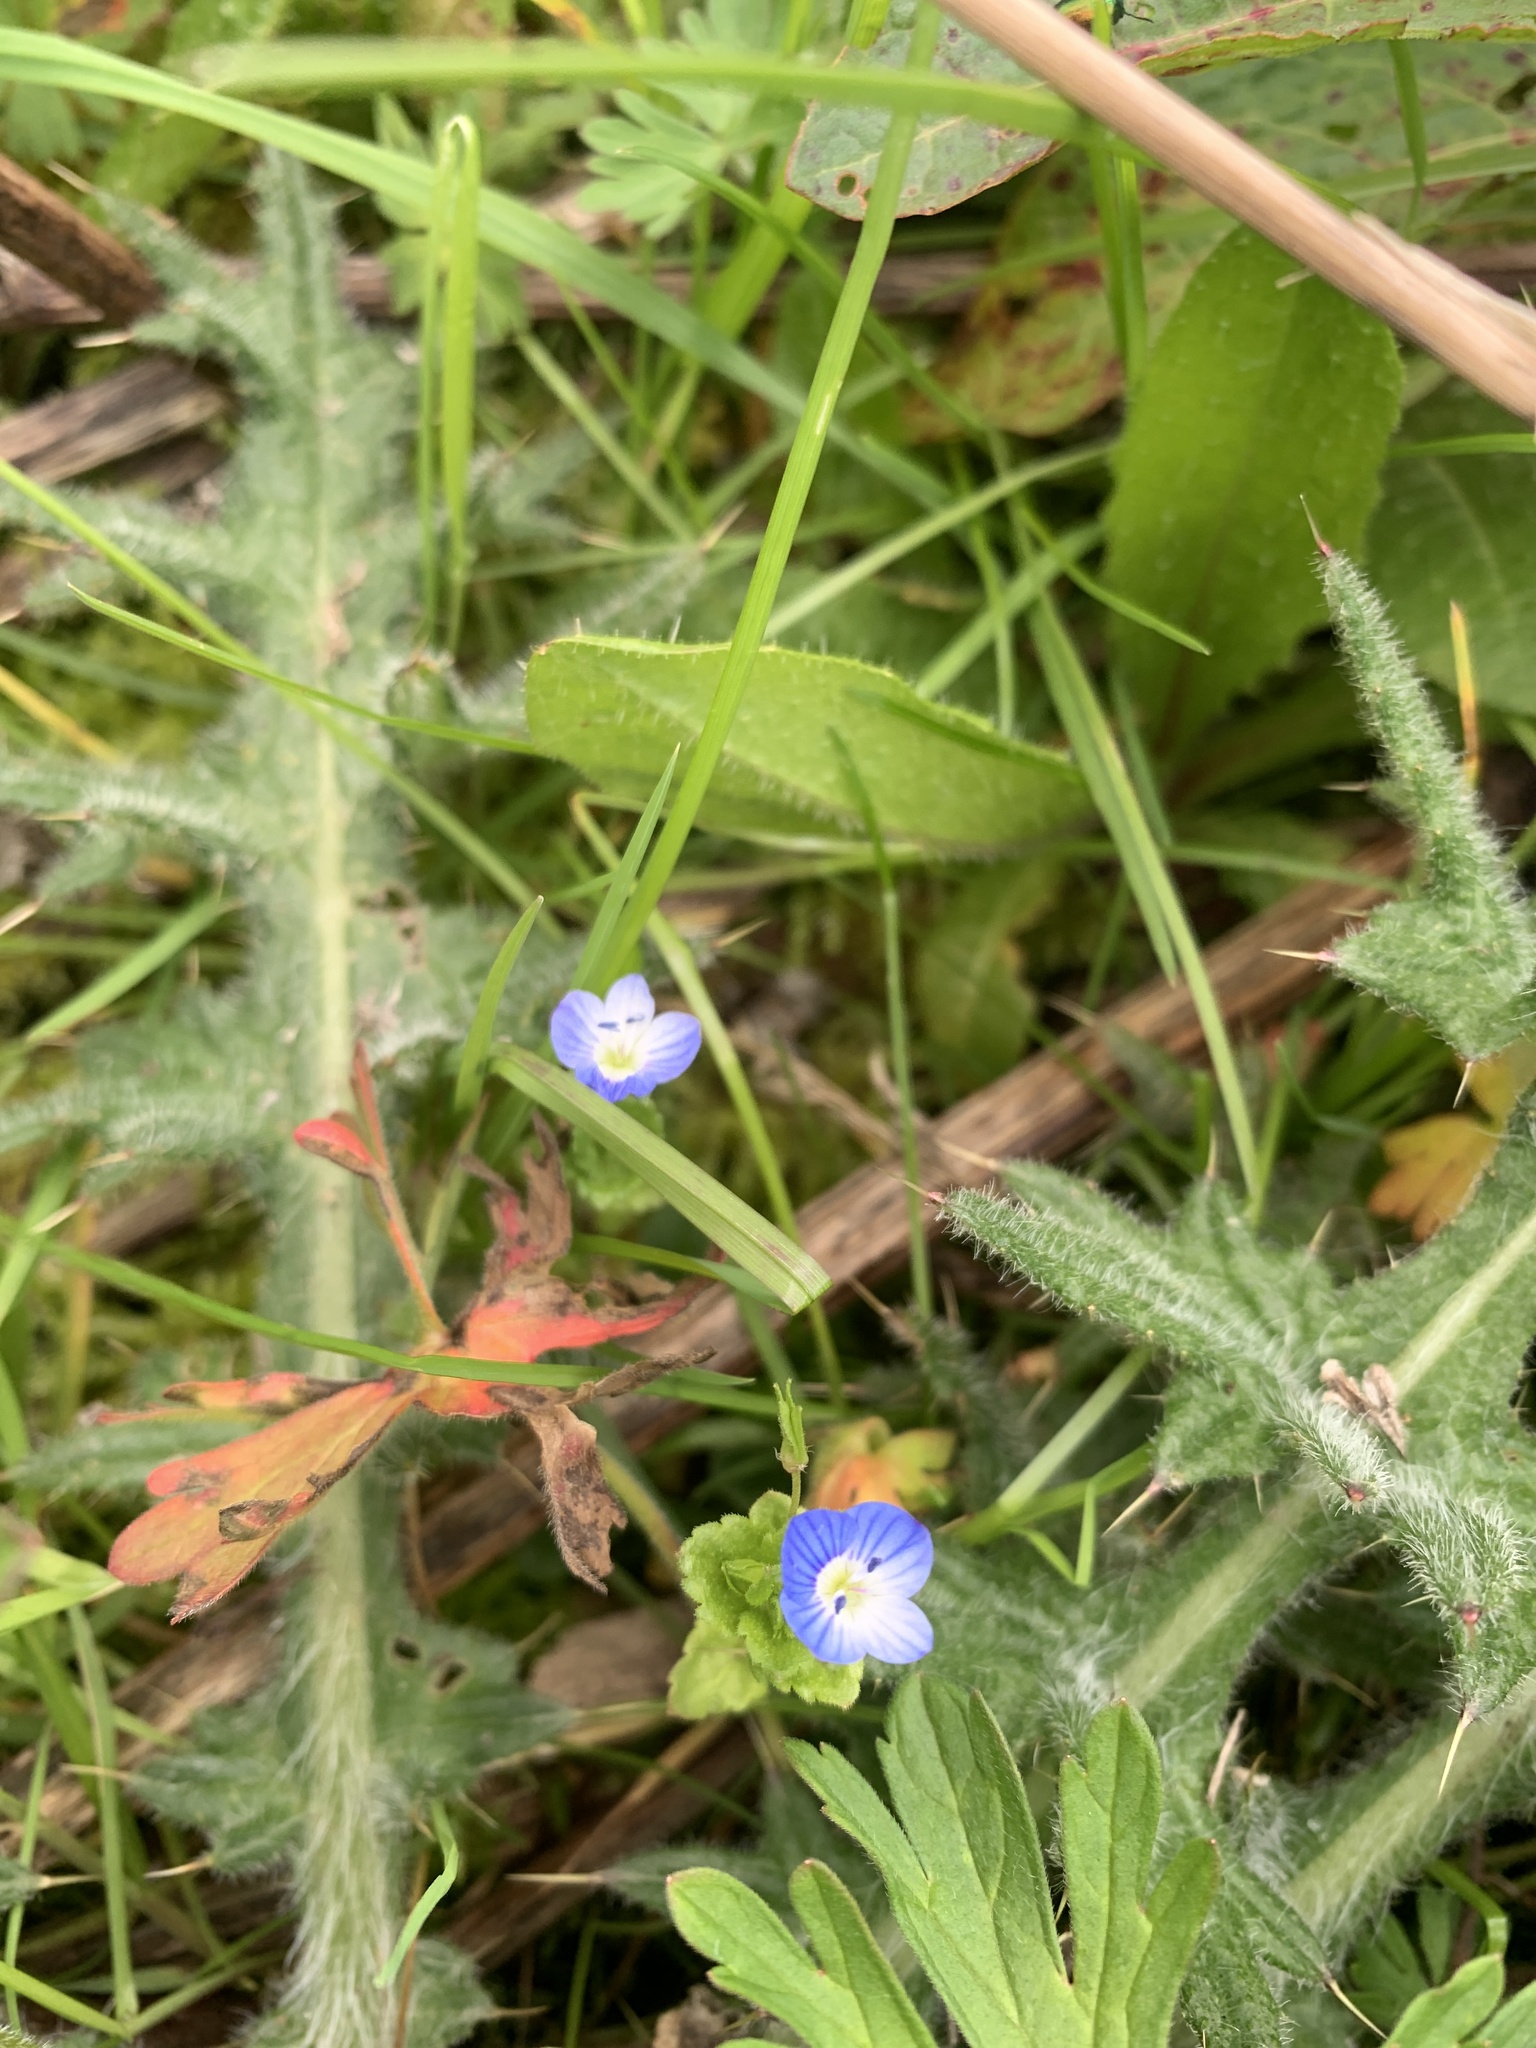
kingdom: Plantae
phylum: Tracheophyta
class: Magnoliopsida
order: Lamiales
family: Plantaginaceae
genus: Veronica
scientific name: Veronica persica
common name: Common field-speedwell
